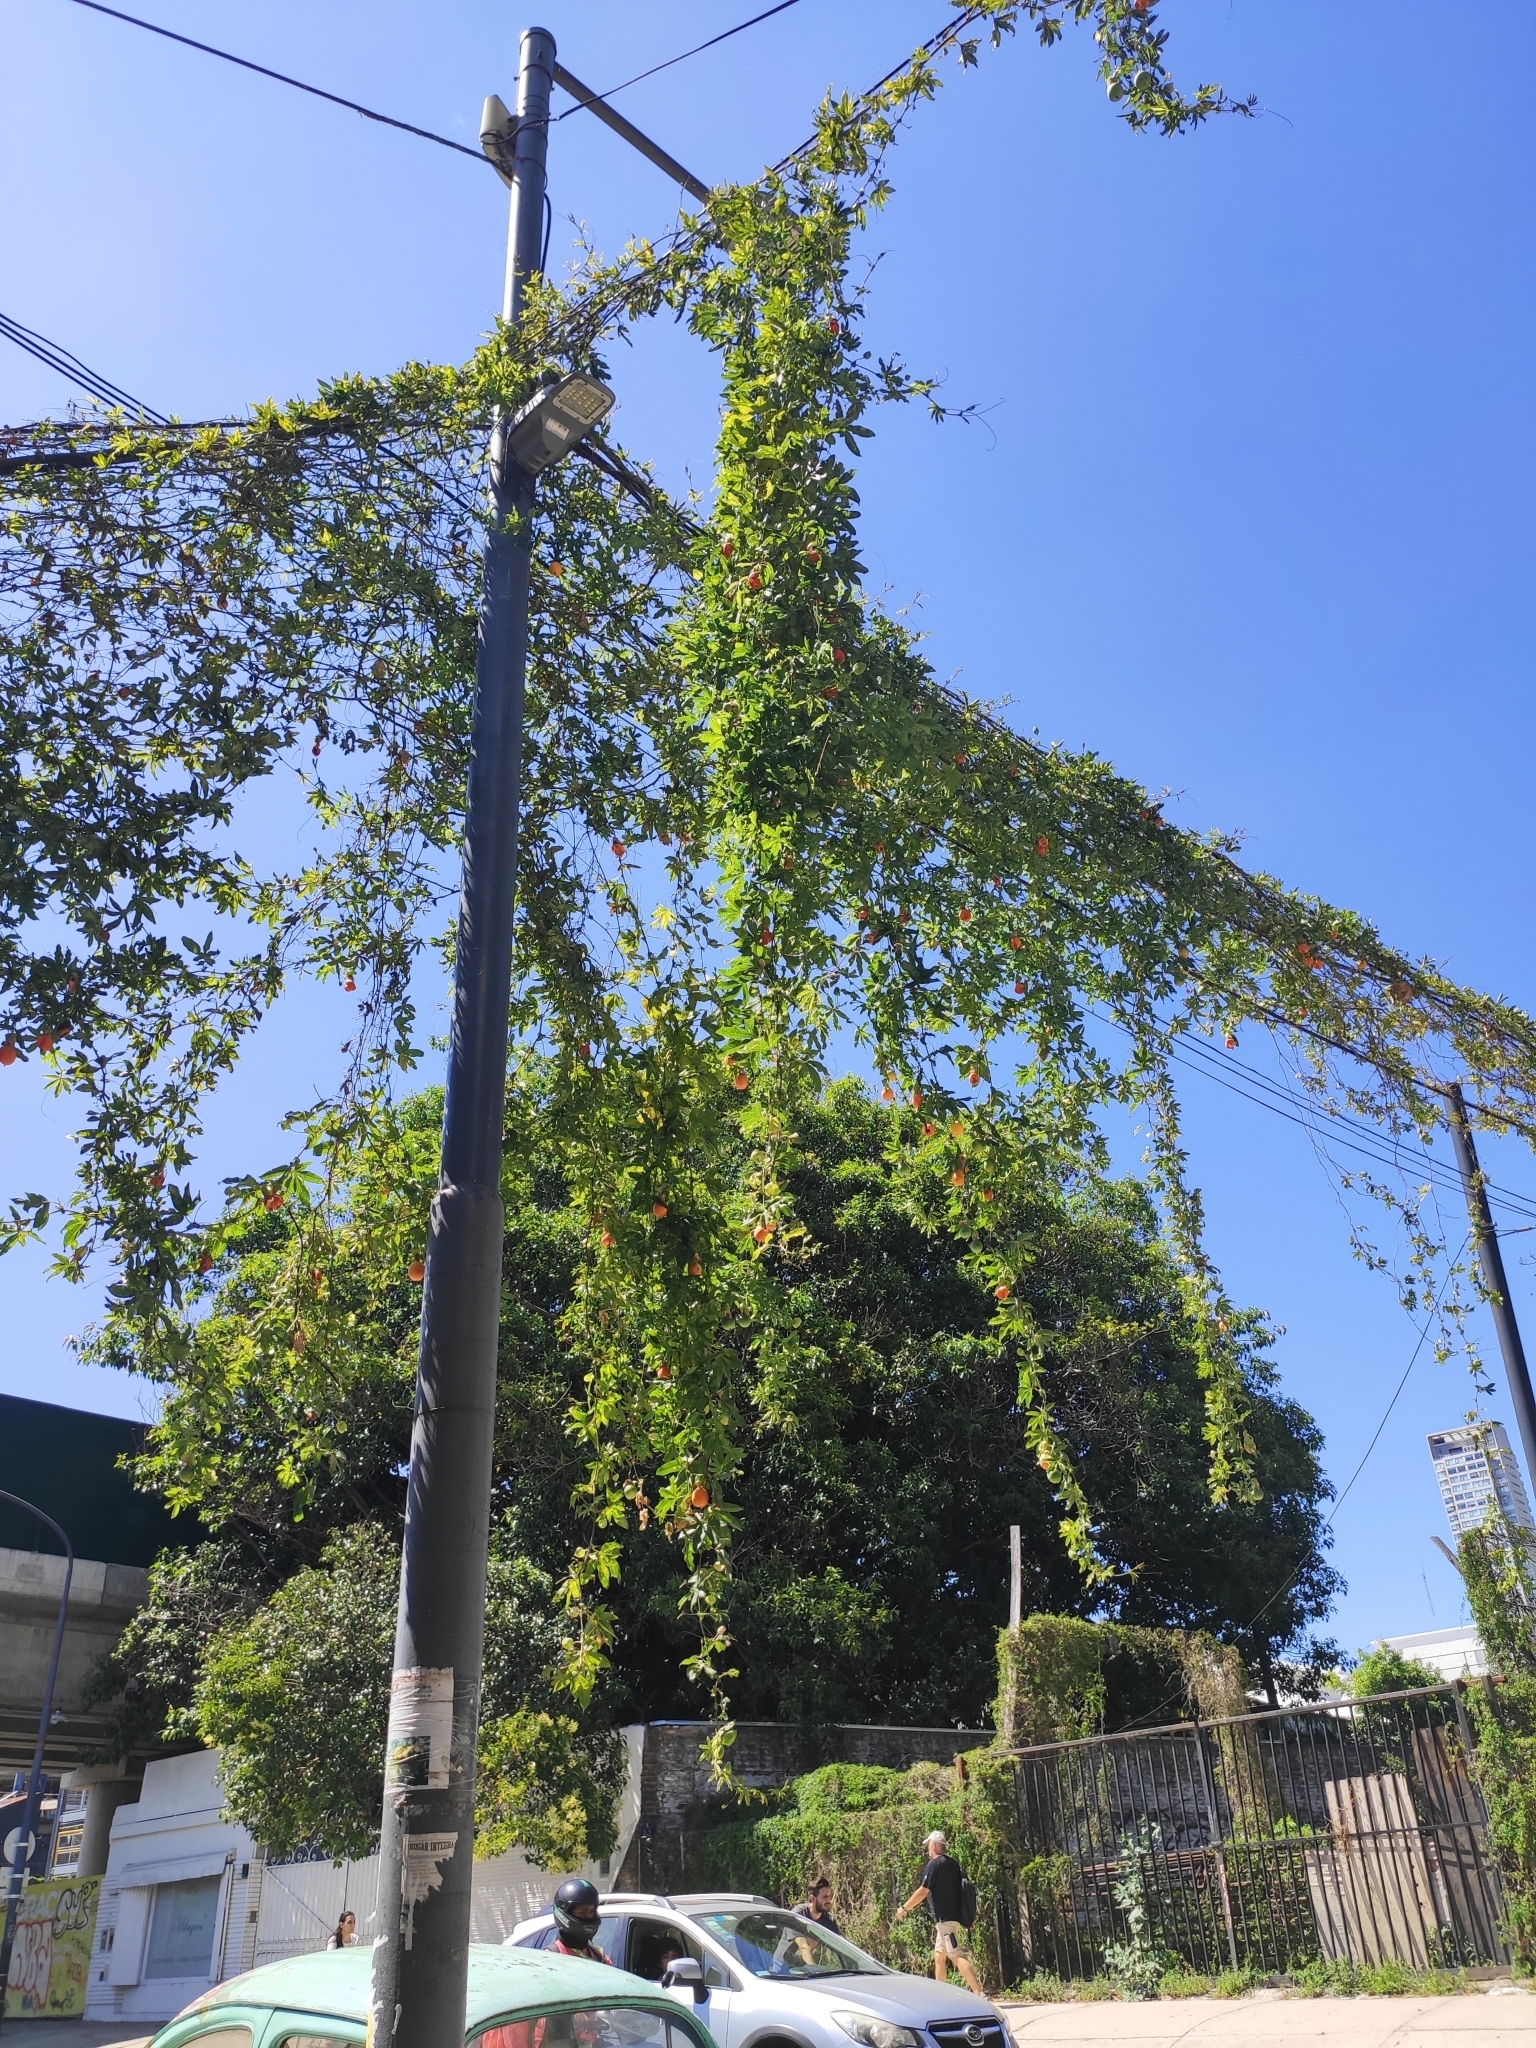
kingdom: Plantae
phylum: Tracheophyta
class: Magnoliopsida
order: Malpighiales
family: Passifloraceae
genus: Passiflora
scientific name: Passiflora caerulea
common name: Blue passionflower
